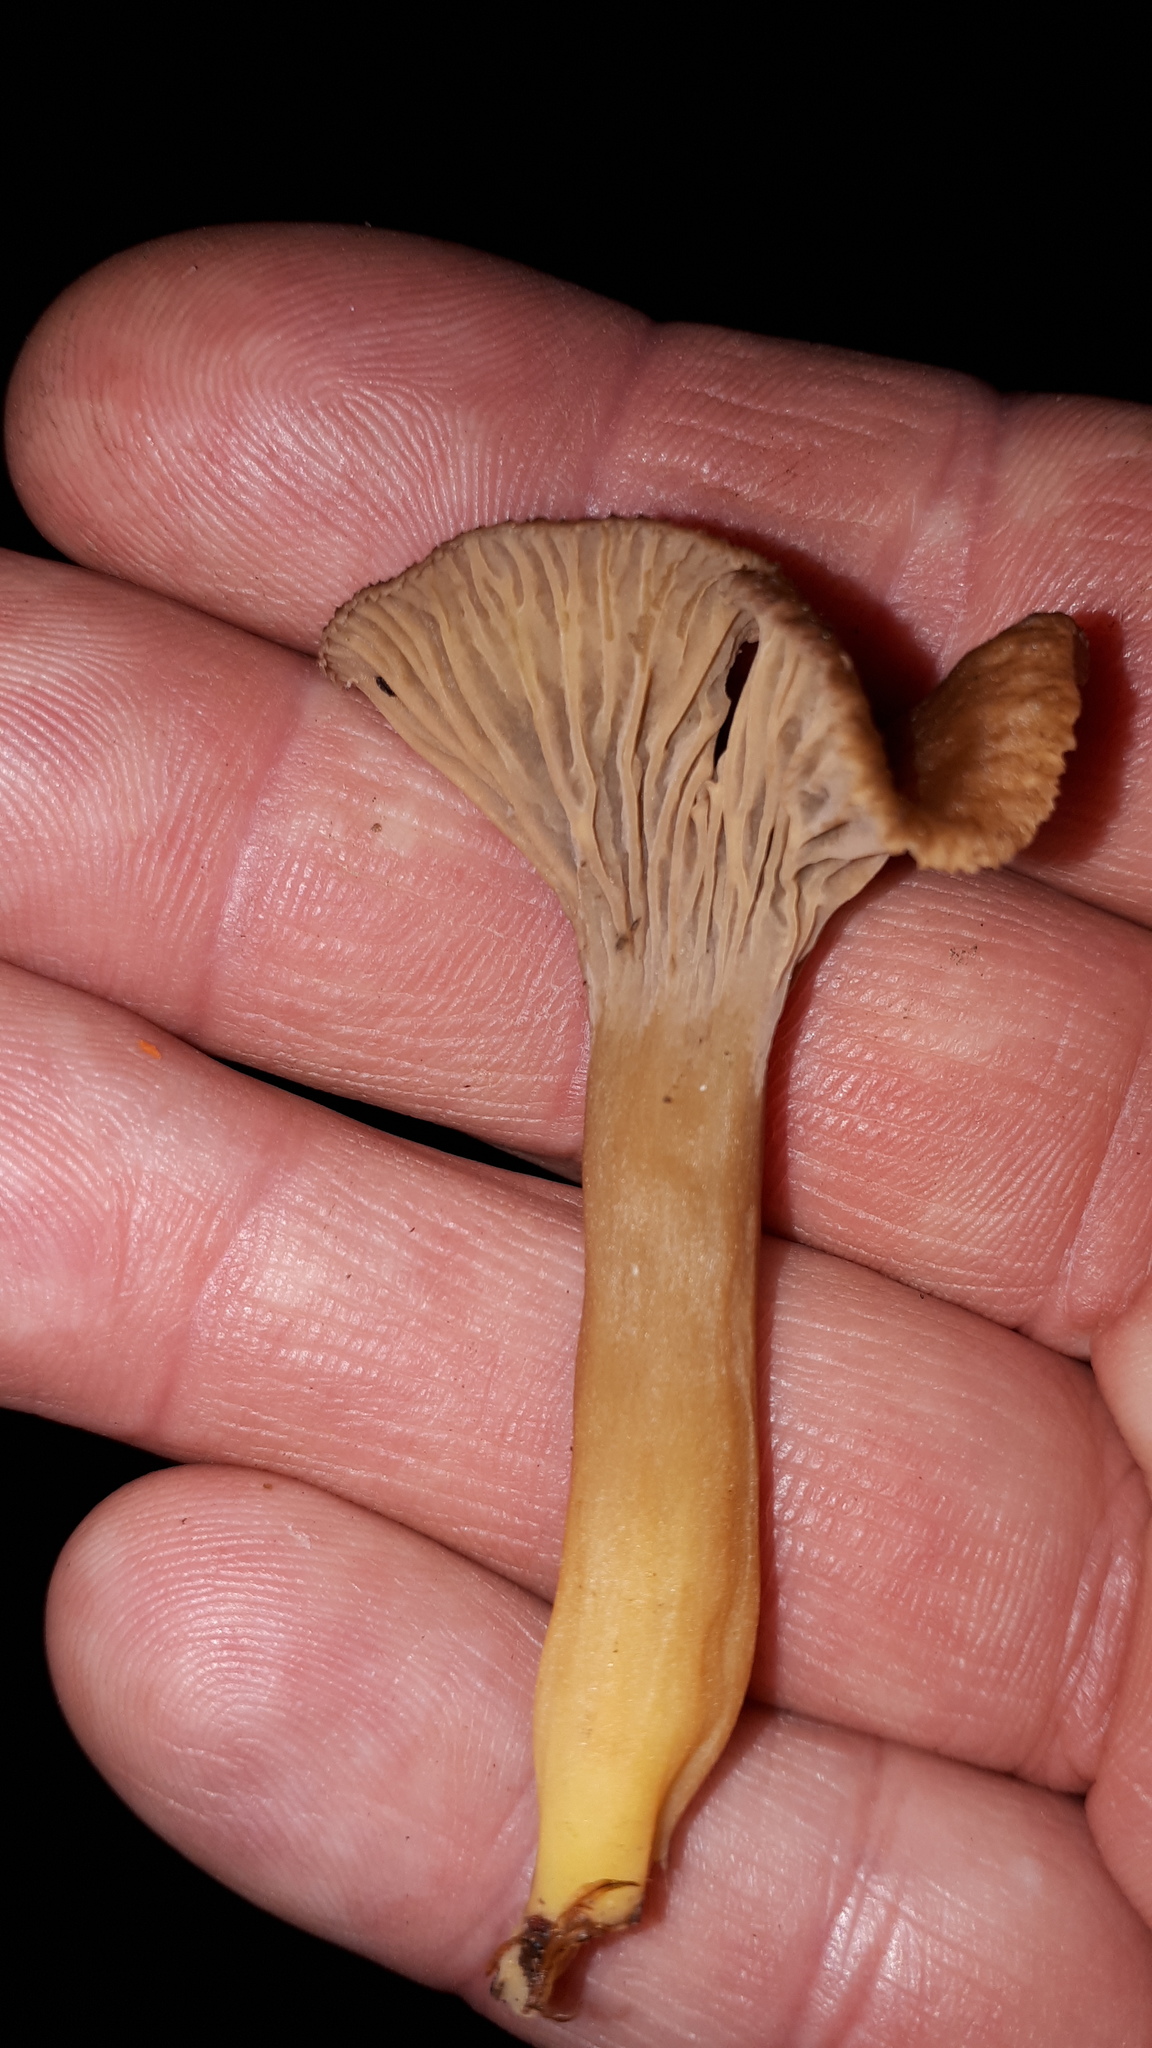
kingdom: Fungi
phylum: Basidiomycota
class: Agaricomycetes
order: Cantharellales
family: Hydnaceae
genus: Craterellus
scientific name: Craterellus tubaeformis
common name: Yellowfoot
